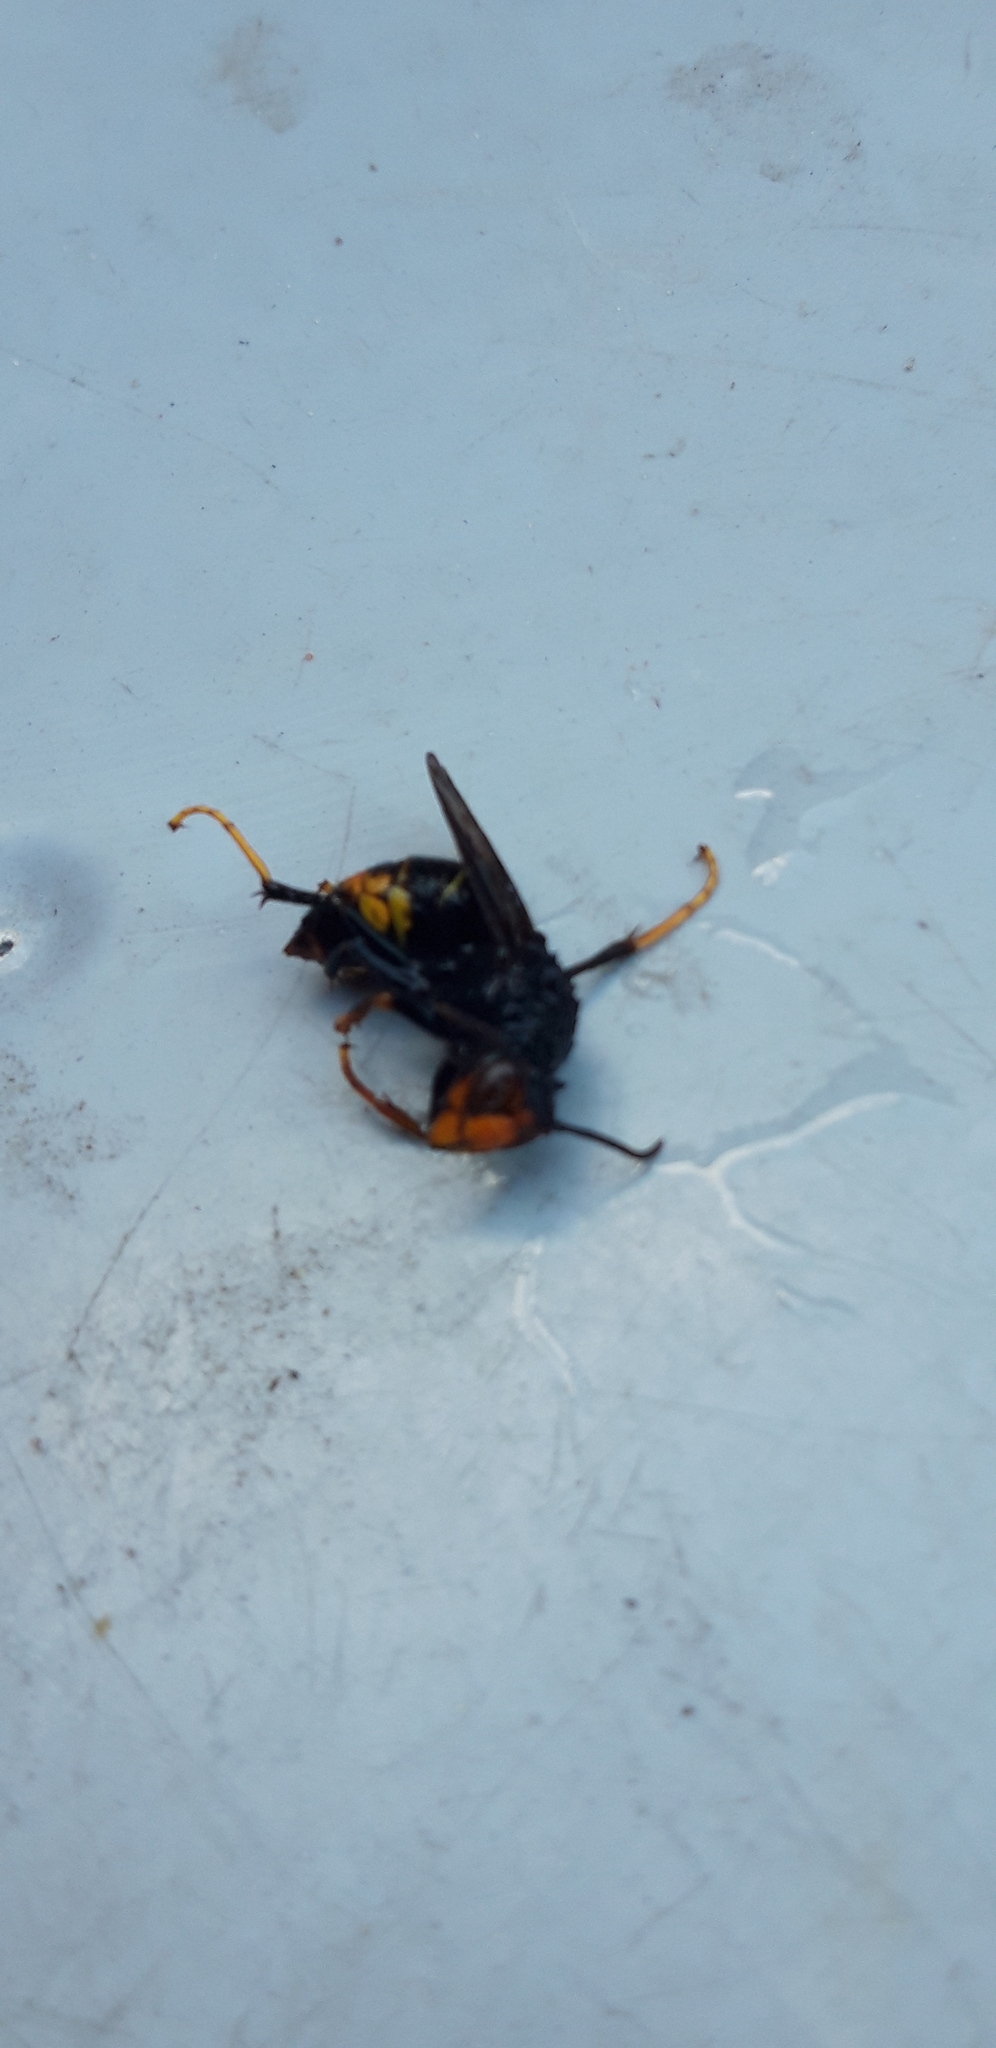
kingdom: Animalia
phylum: Arthropoda
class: Insecta
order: Hymenoptera
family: Vespidae
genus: Vespa
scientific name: Vespa velutina
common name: Asian hornet
